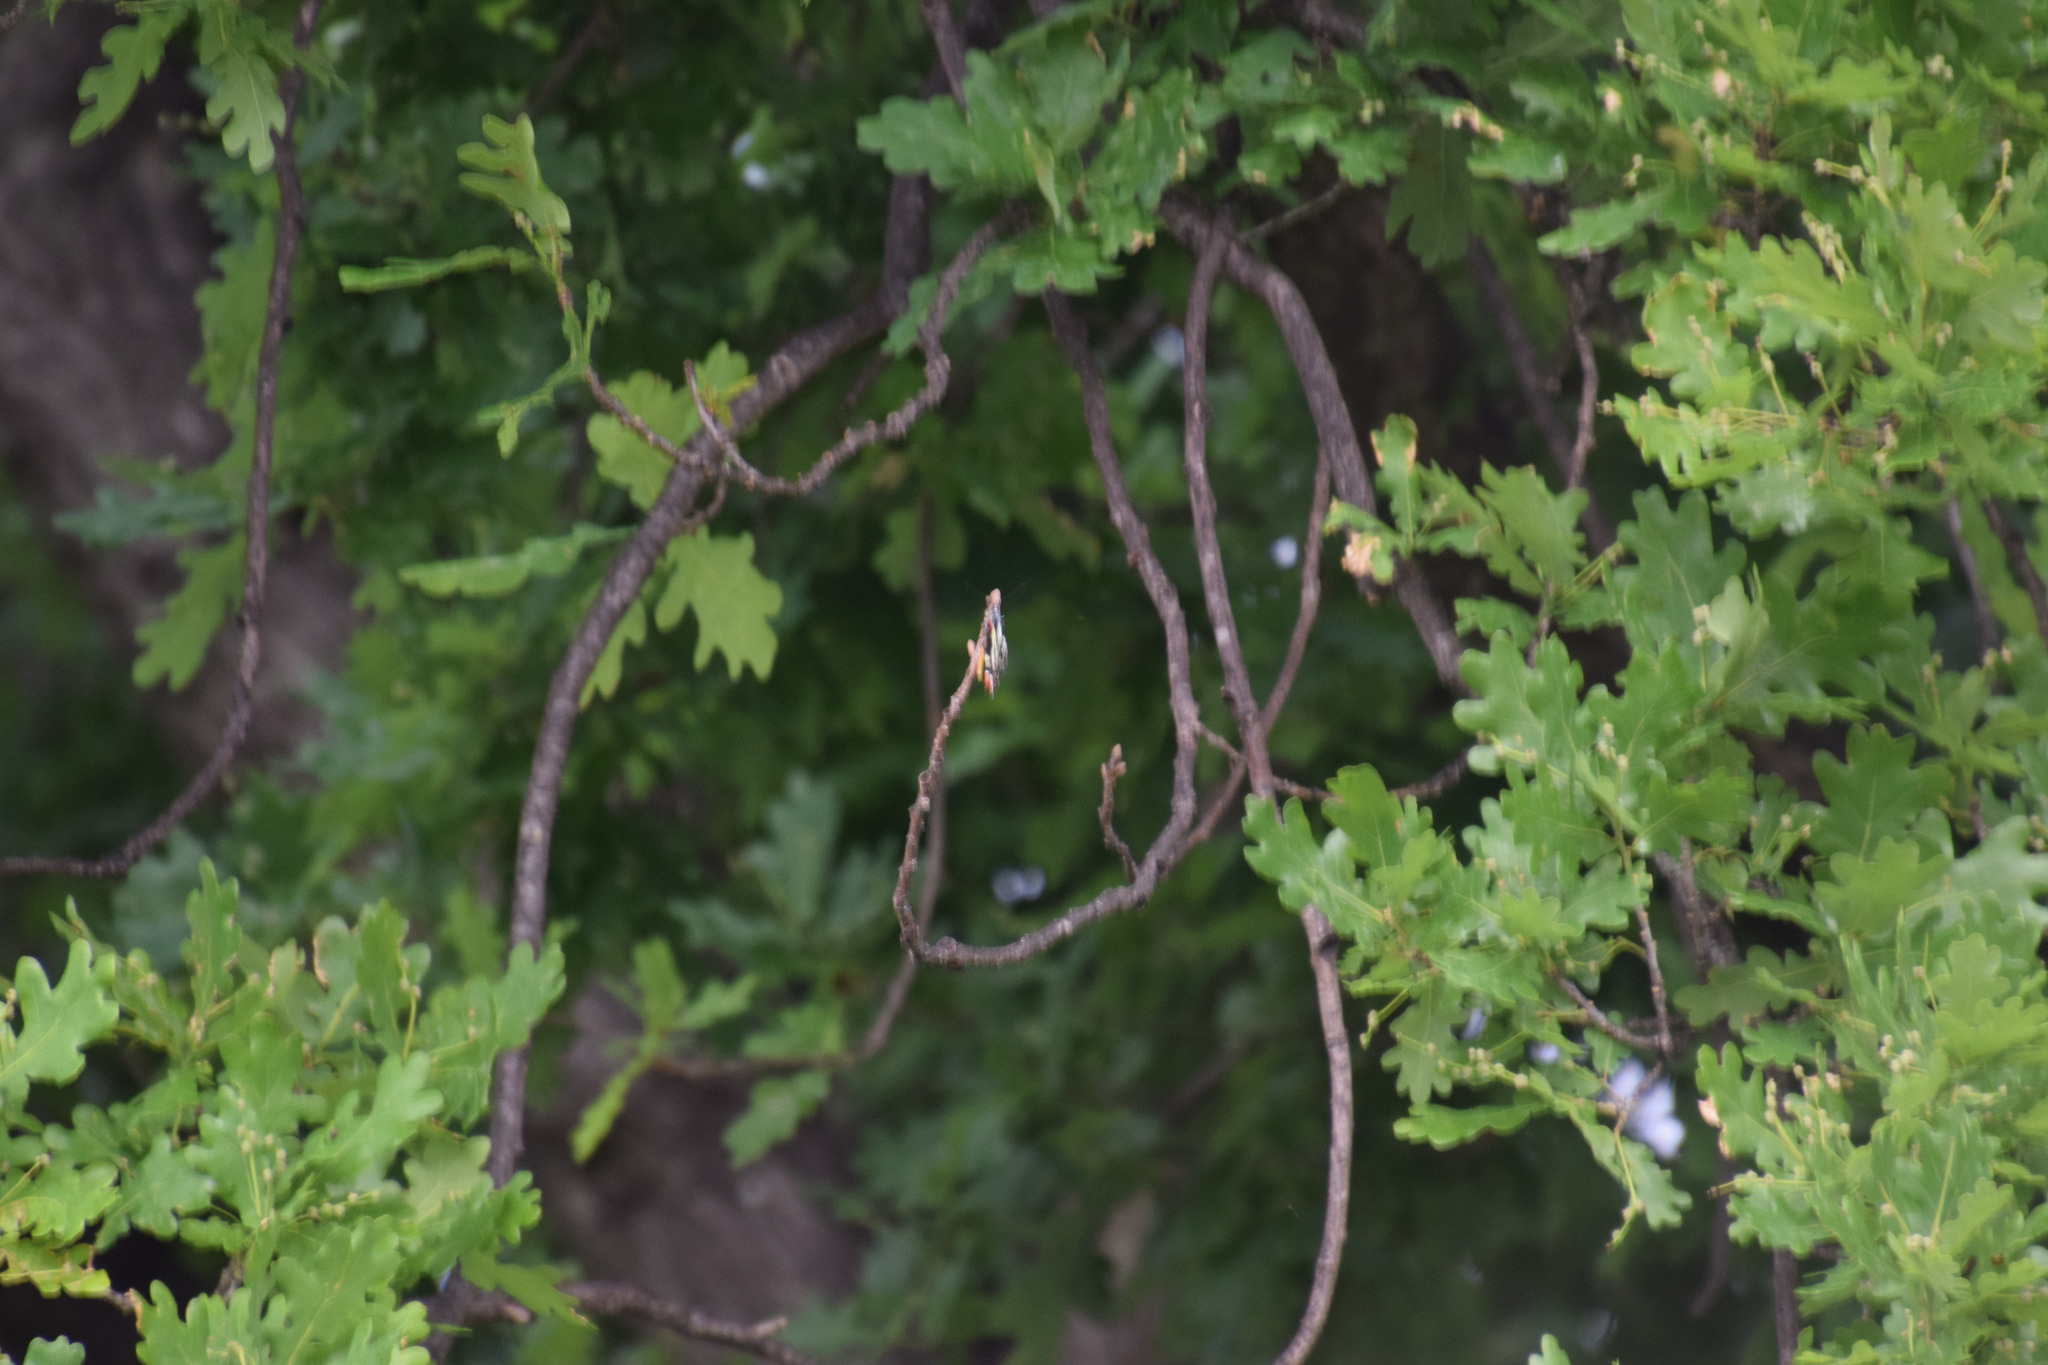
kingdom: Animalia
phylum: Arthropoda
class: Insecta
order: Lepidoptera
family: Pieridae
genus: Delias
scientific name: Delias aganippe
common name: Red-spotted jezebel
